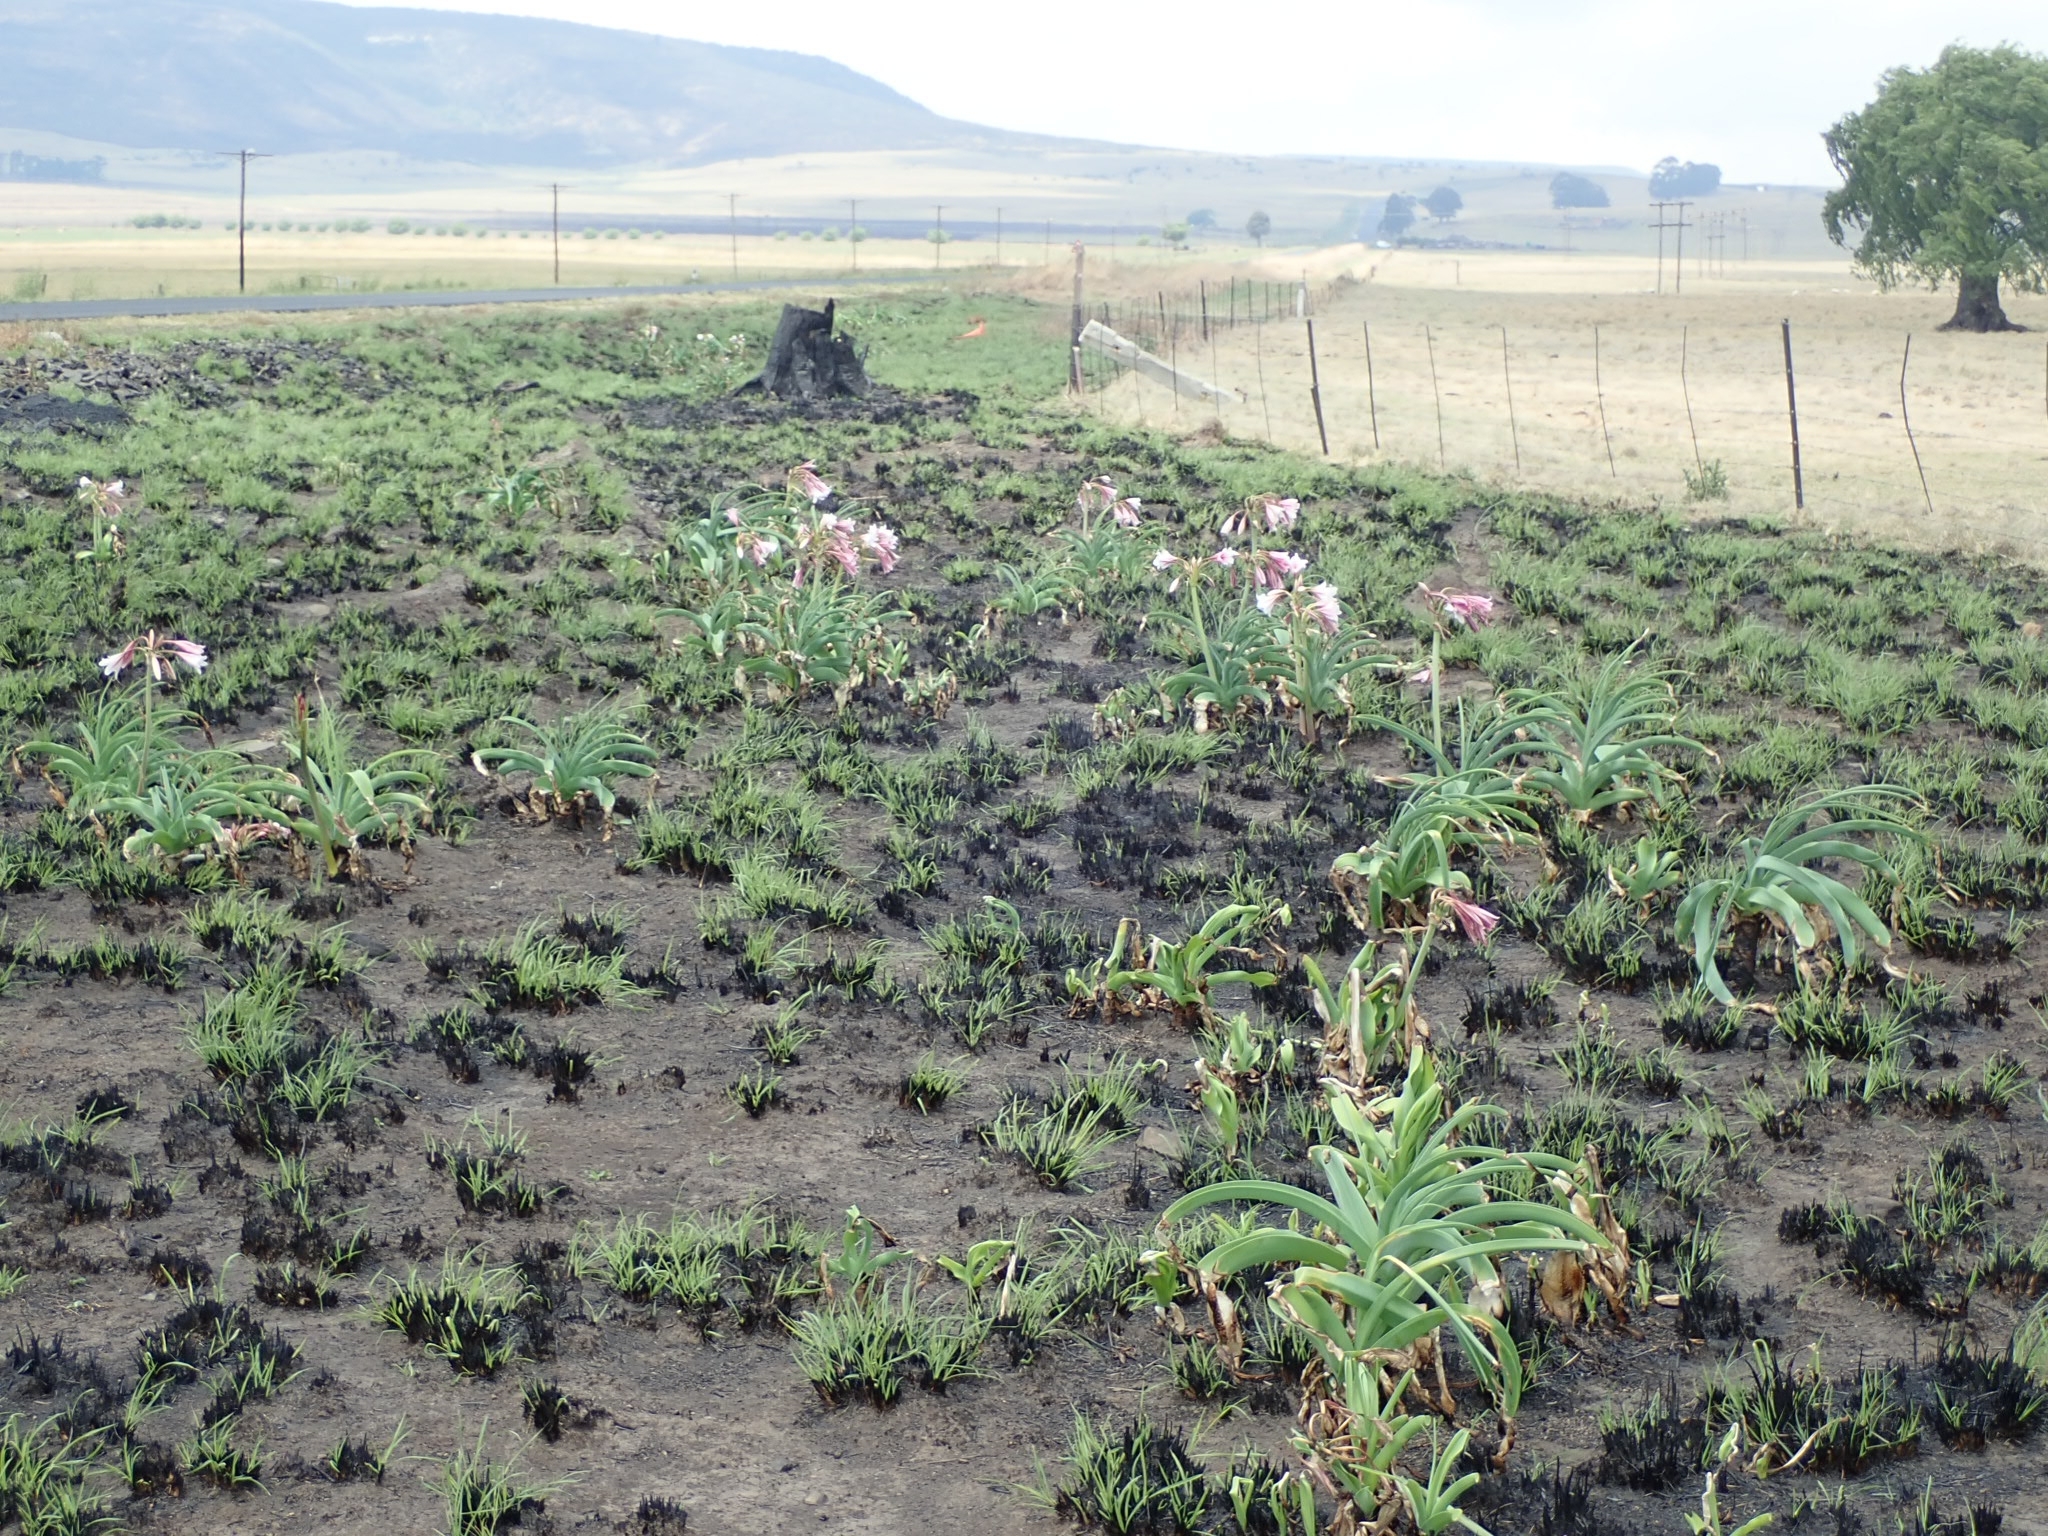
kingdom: Plantae
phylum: Tracheophyta
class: Liliopsida
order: Asparagales
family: Amaryllidaceae
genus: Crinum
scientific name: Crinum bulbispermum
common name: Hardy swamplily
